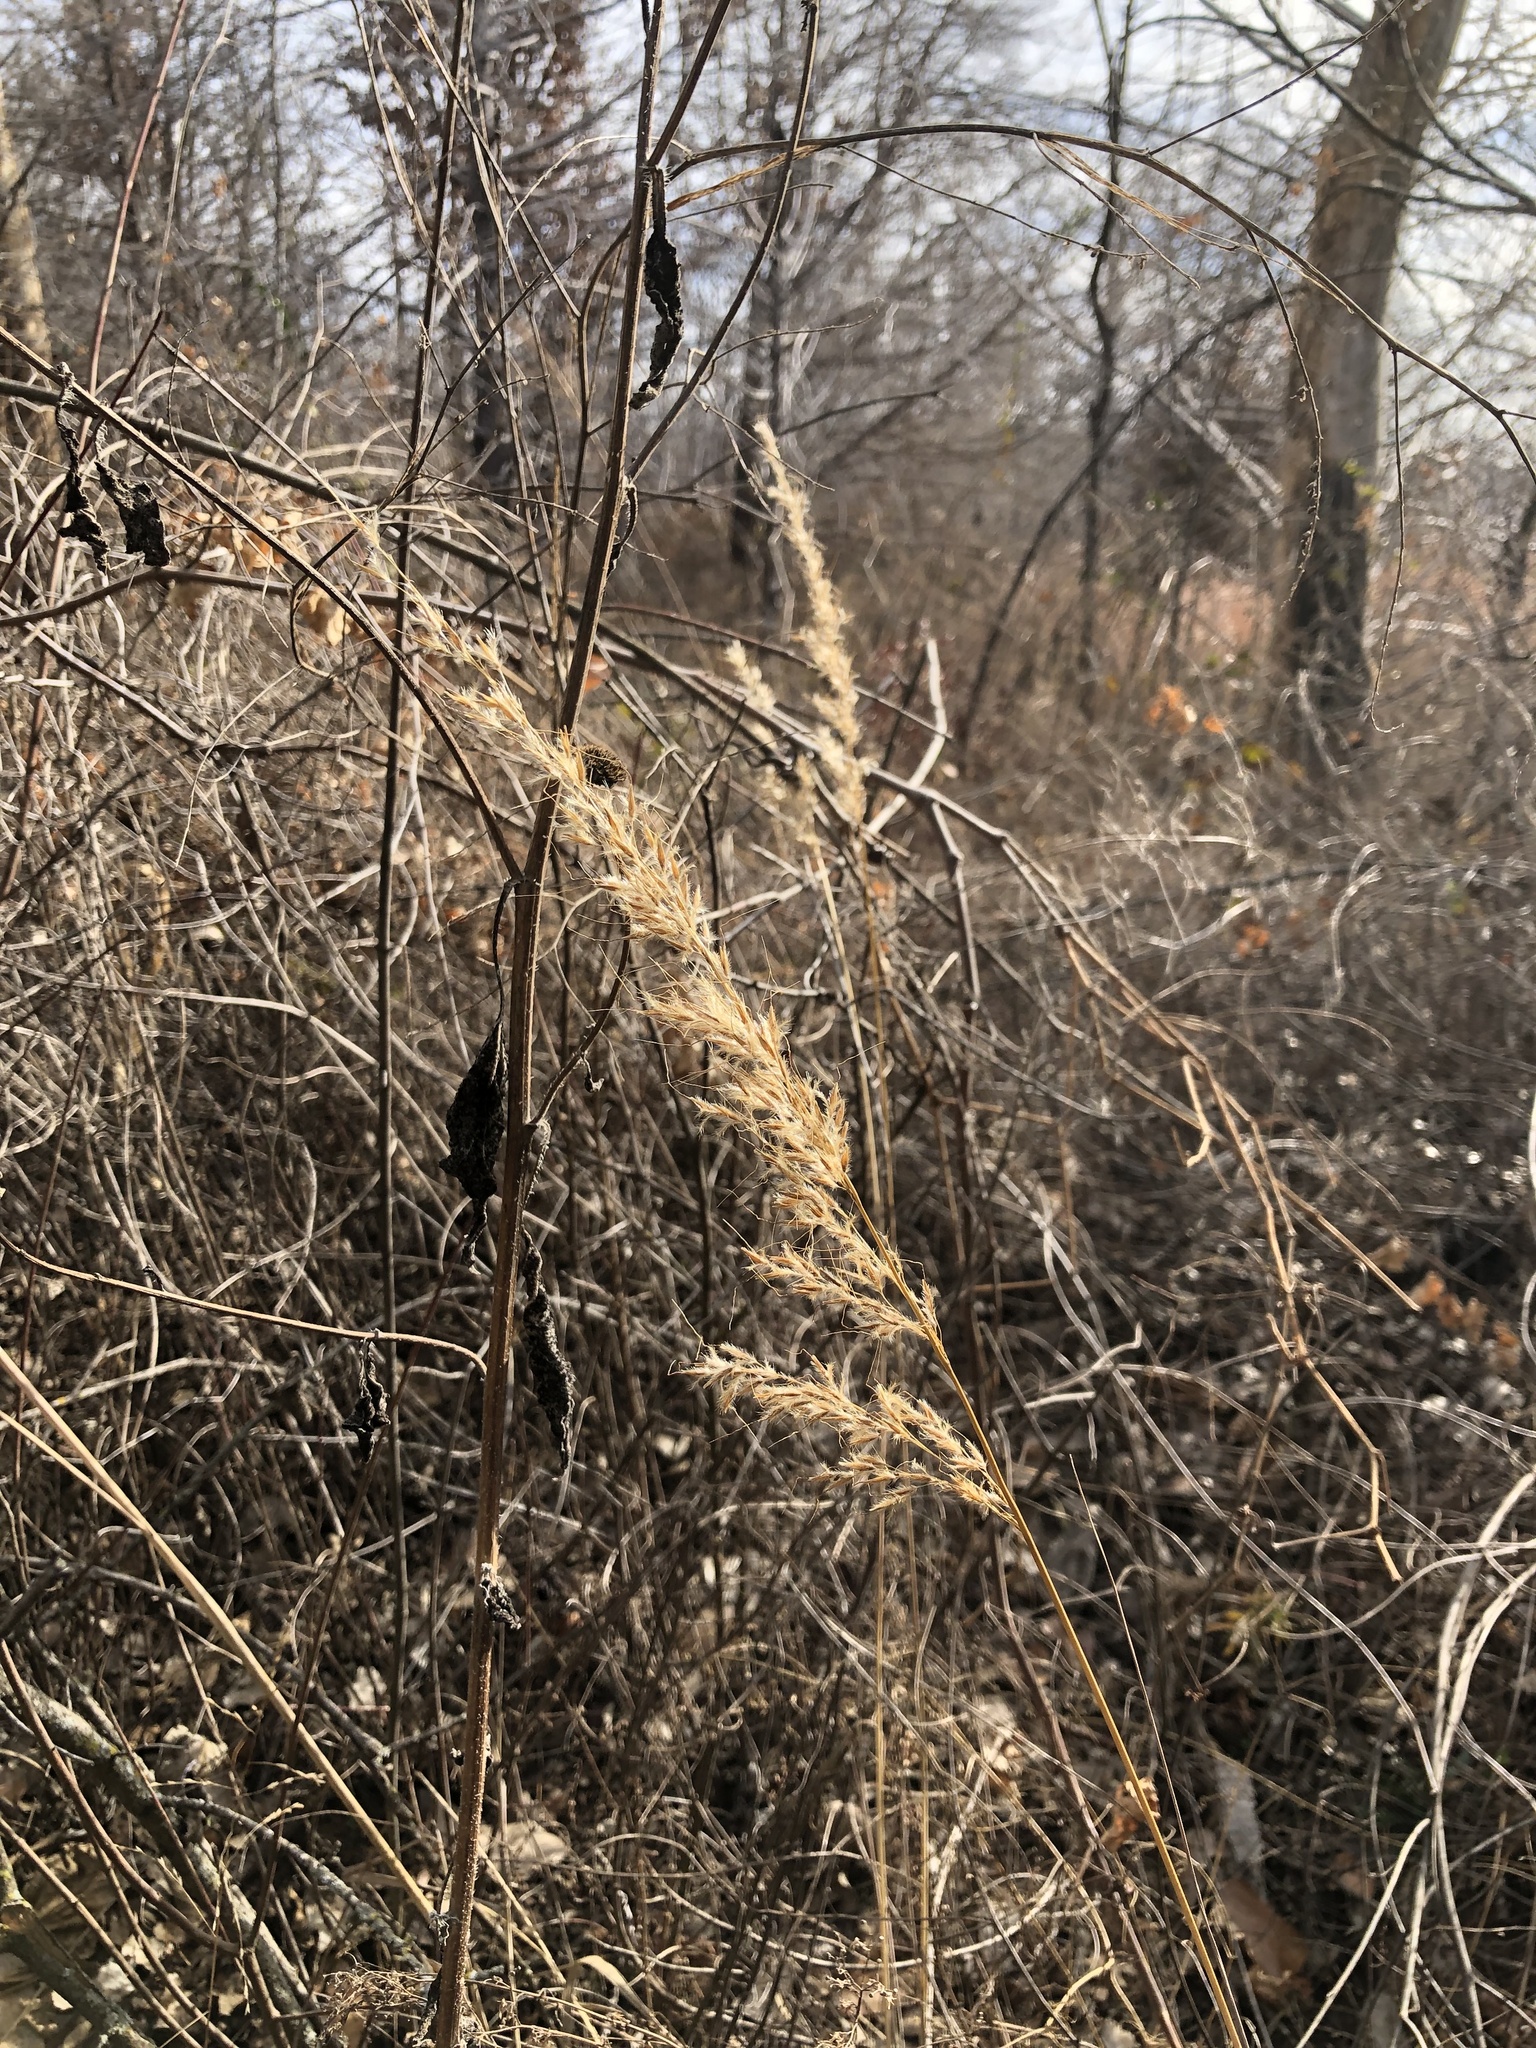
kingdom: Plantae
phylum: Tracheophyta
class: Liliopsida
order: Poales
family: Poaceae
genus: Sorghastrum
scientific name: Sorghastrum nutans
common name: Indian grass
